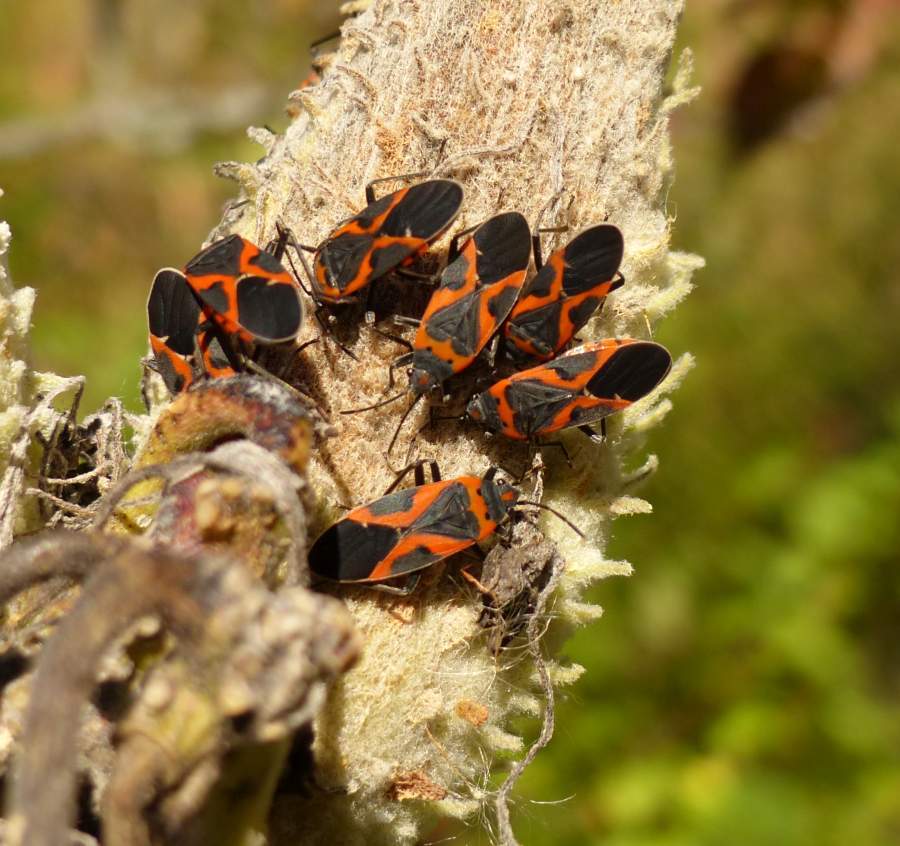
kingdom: Animalia
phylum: Arthropoda
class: Insecta
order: Hemiptera
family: Lygaeidae
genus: Lygaeus
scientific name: Lygaeus kalmii
